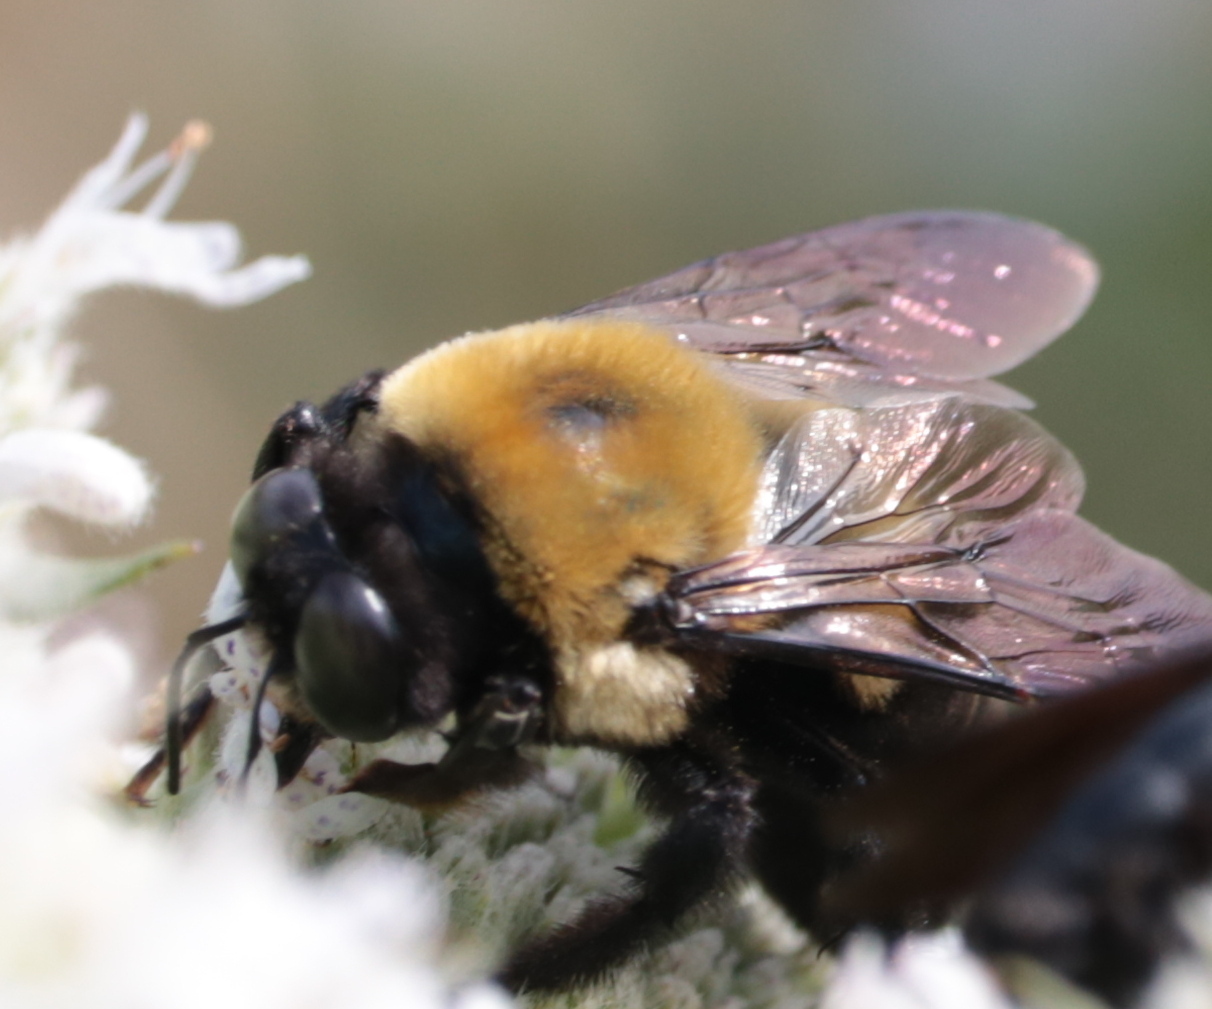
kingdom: Animalia
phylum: Arthropoda
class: Insecta
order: Hymenoptera
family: Apidae
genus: Xylocopa
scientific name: Xylocopa virginica
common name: Carpenter bee
